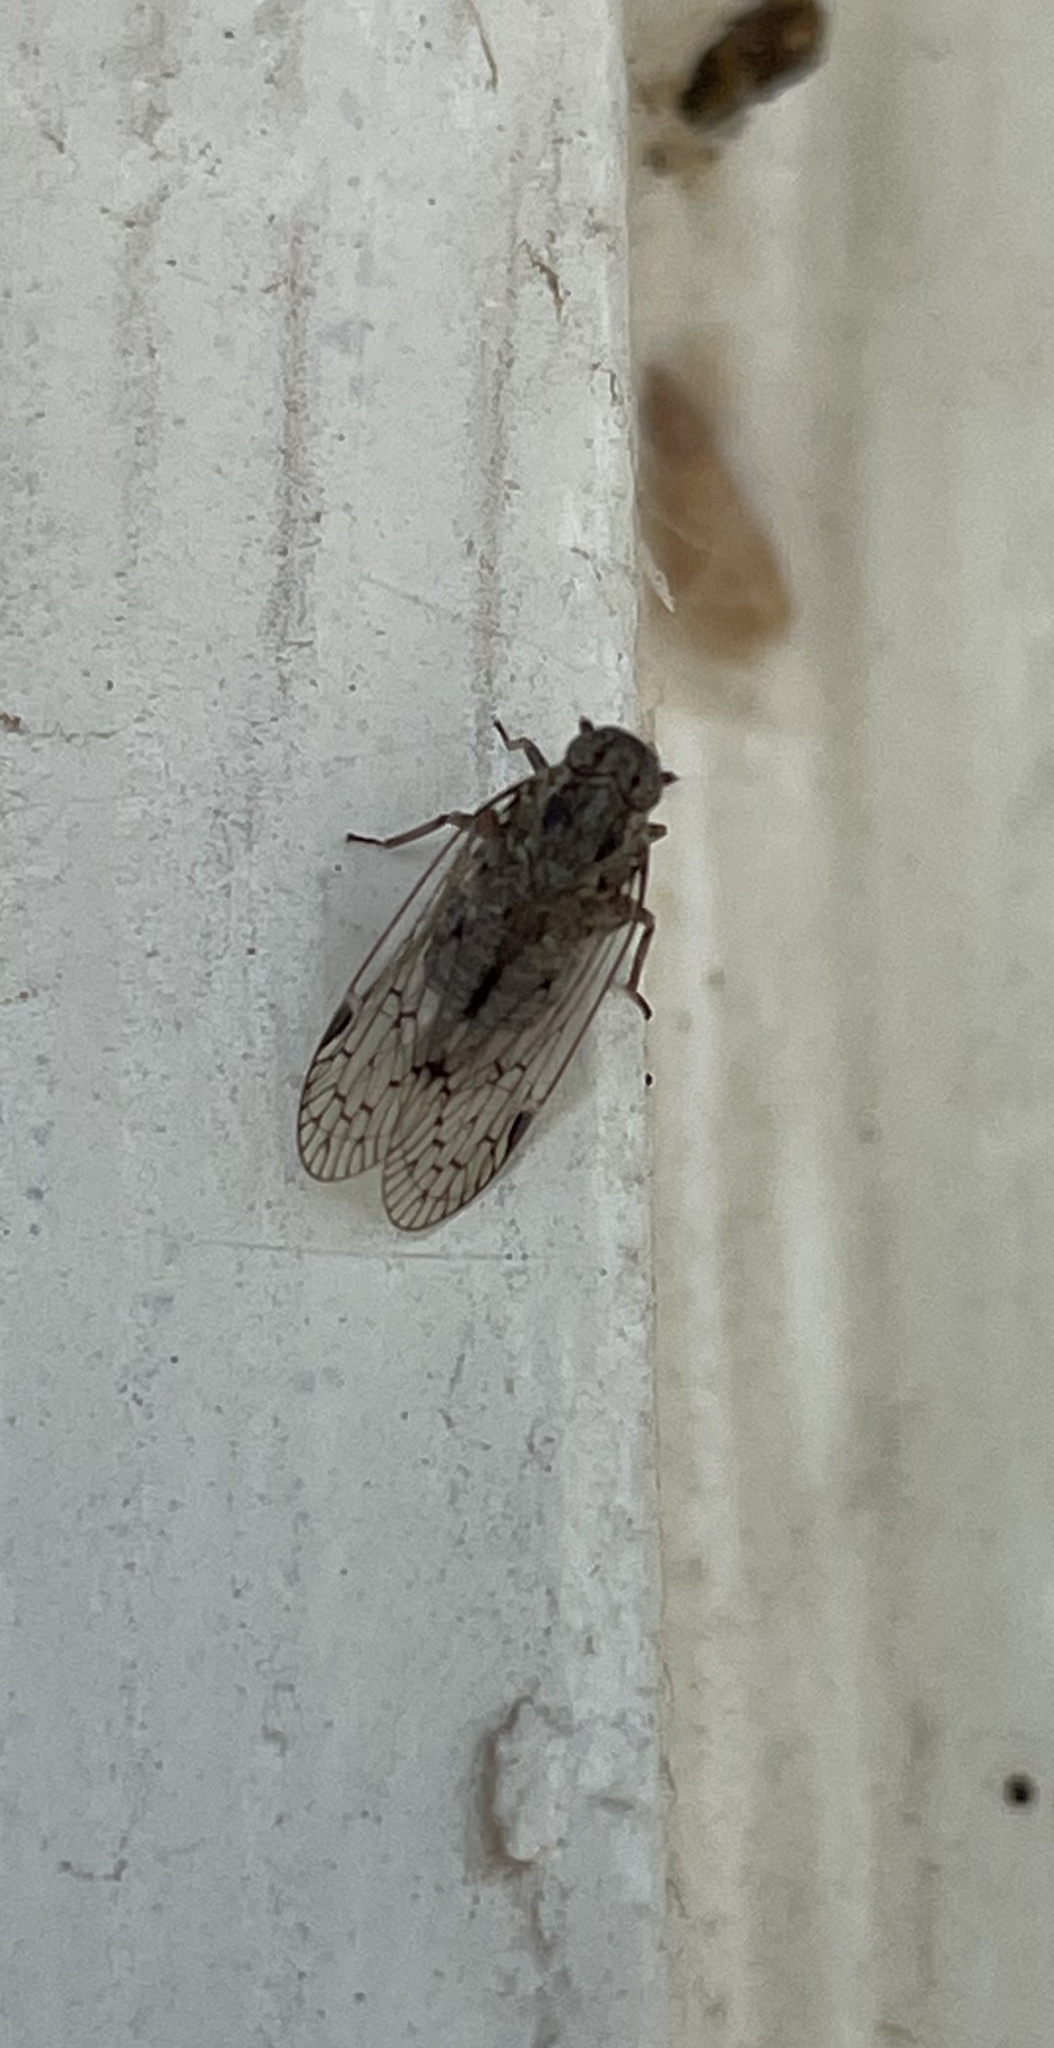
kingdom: Animalia
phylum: Arthropoda
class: Insecta
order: Hemiptera
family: Cixiidae
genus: Melanoliarus
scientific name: Melanoliarus aridus
